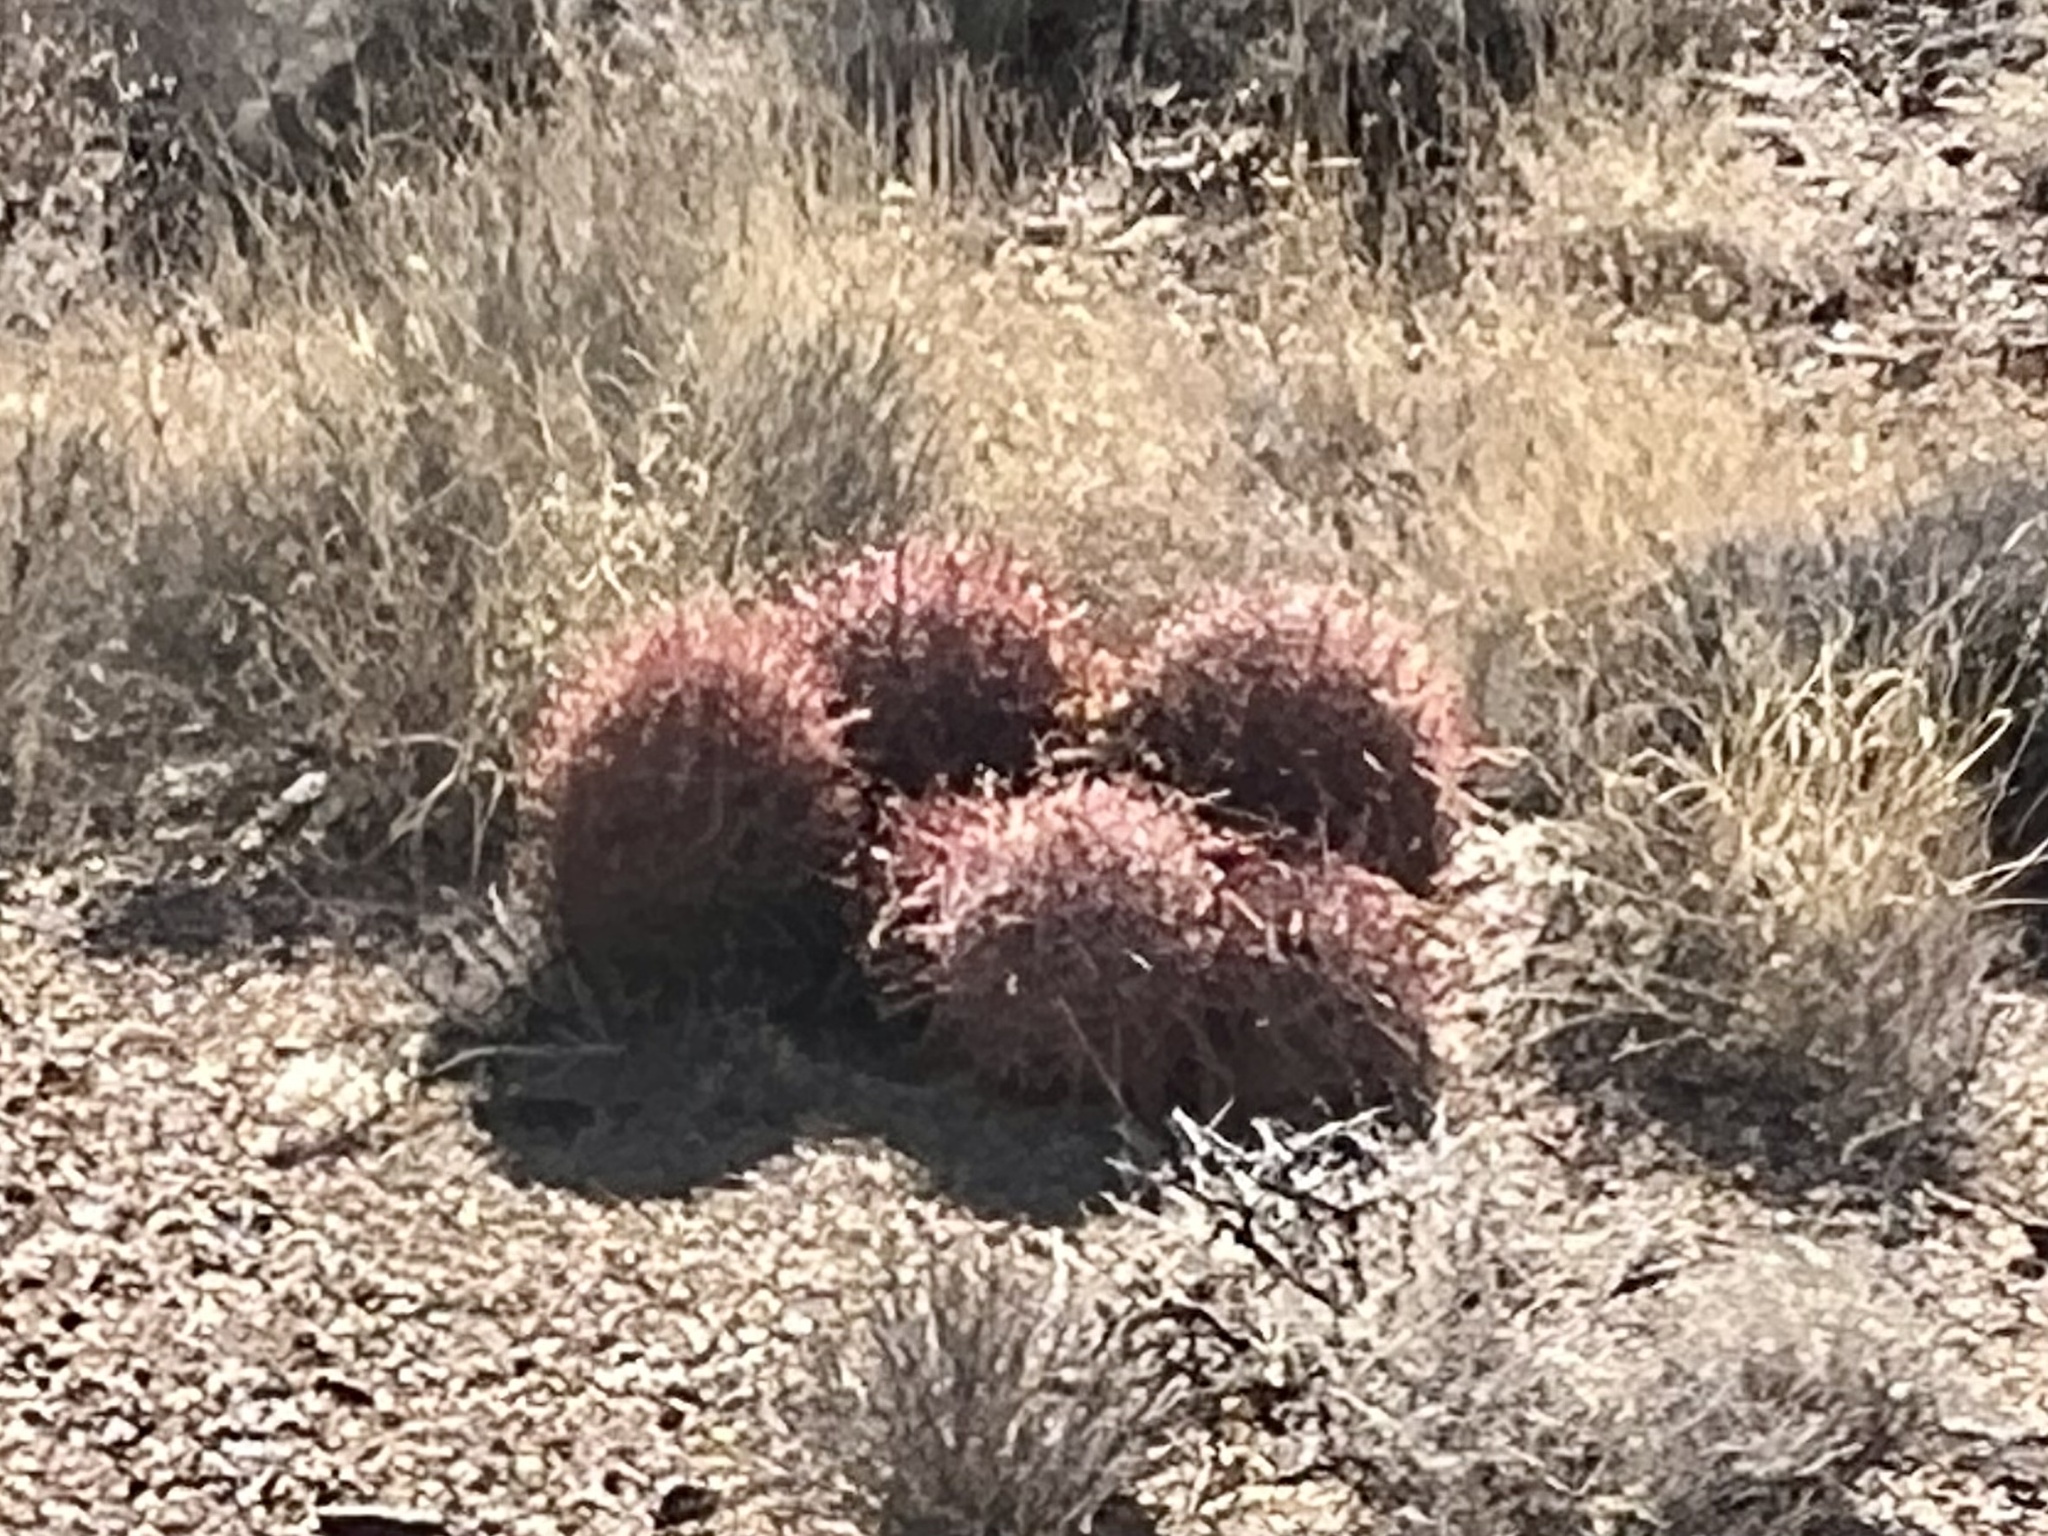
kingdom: Plantae
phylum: Tracheophyta
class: Magnoliopsida
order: Caryophyllales
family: Cactaceae
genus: Ferocactus
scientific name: Ferocactus cylindraceus
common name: California barrel cactus
